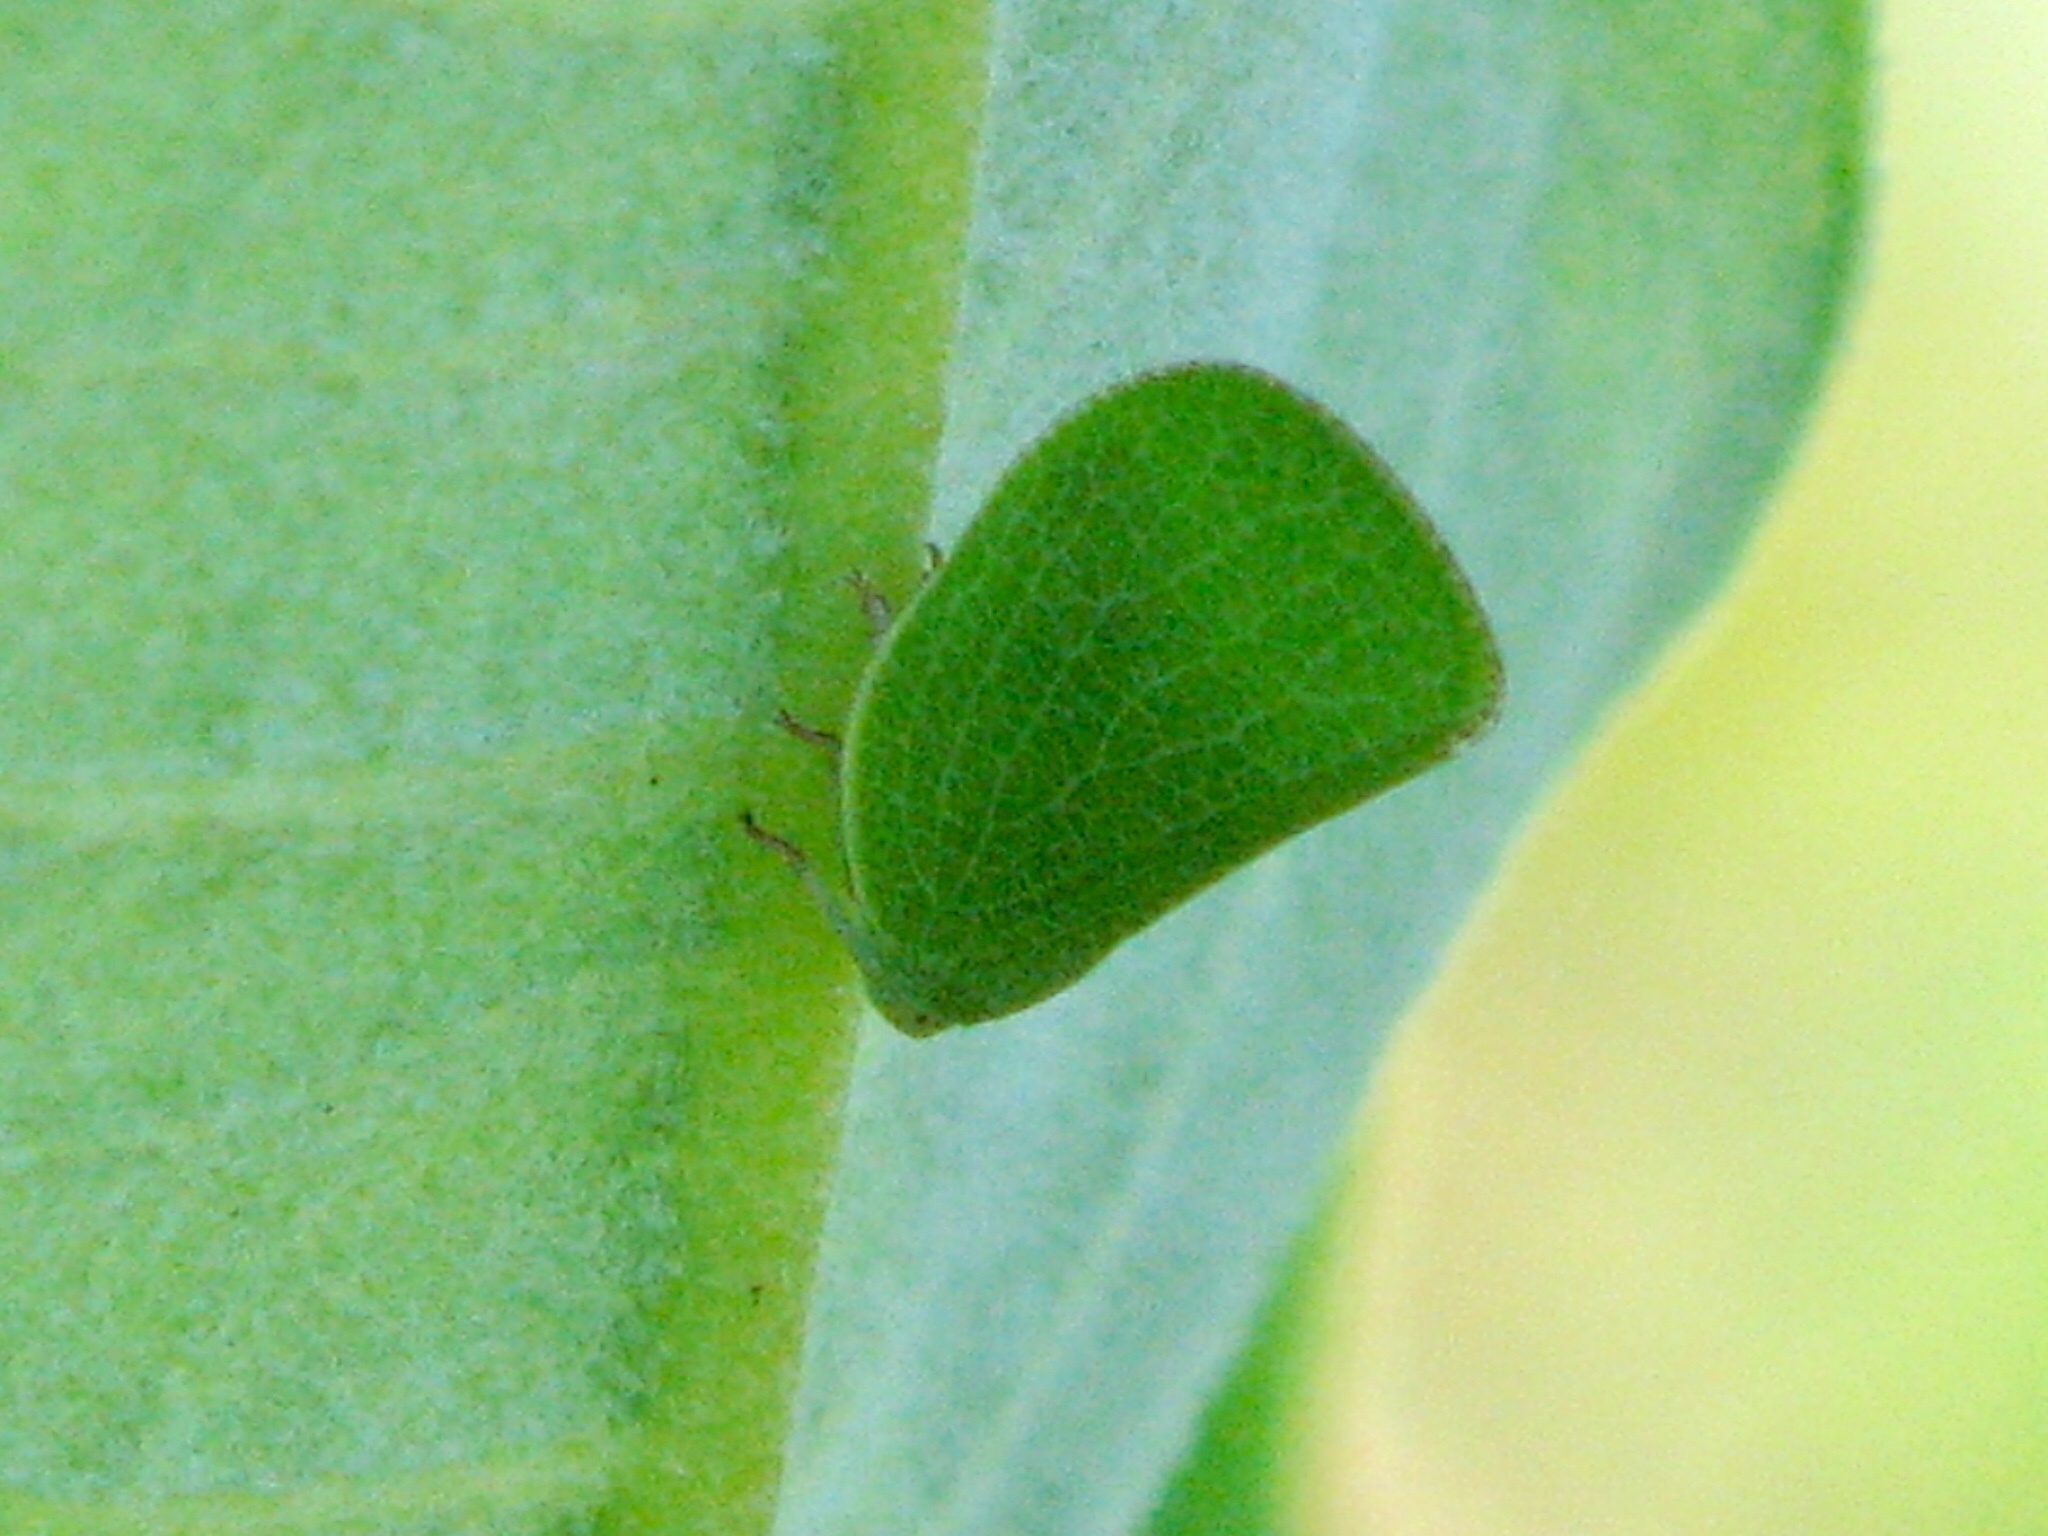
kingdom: Animalia
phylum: Arthropoda
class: Insecta
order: Hemiptera
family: Acanaloniidae
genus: Acanalonia
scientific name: Acanalonia conica
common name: Green cone-headed planthopper
